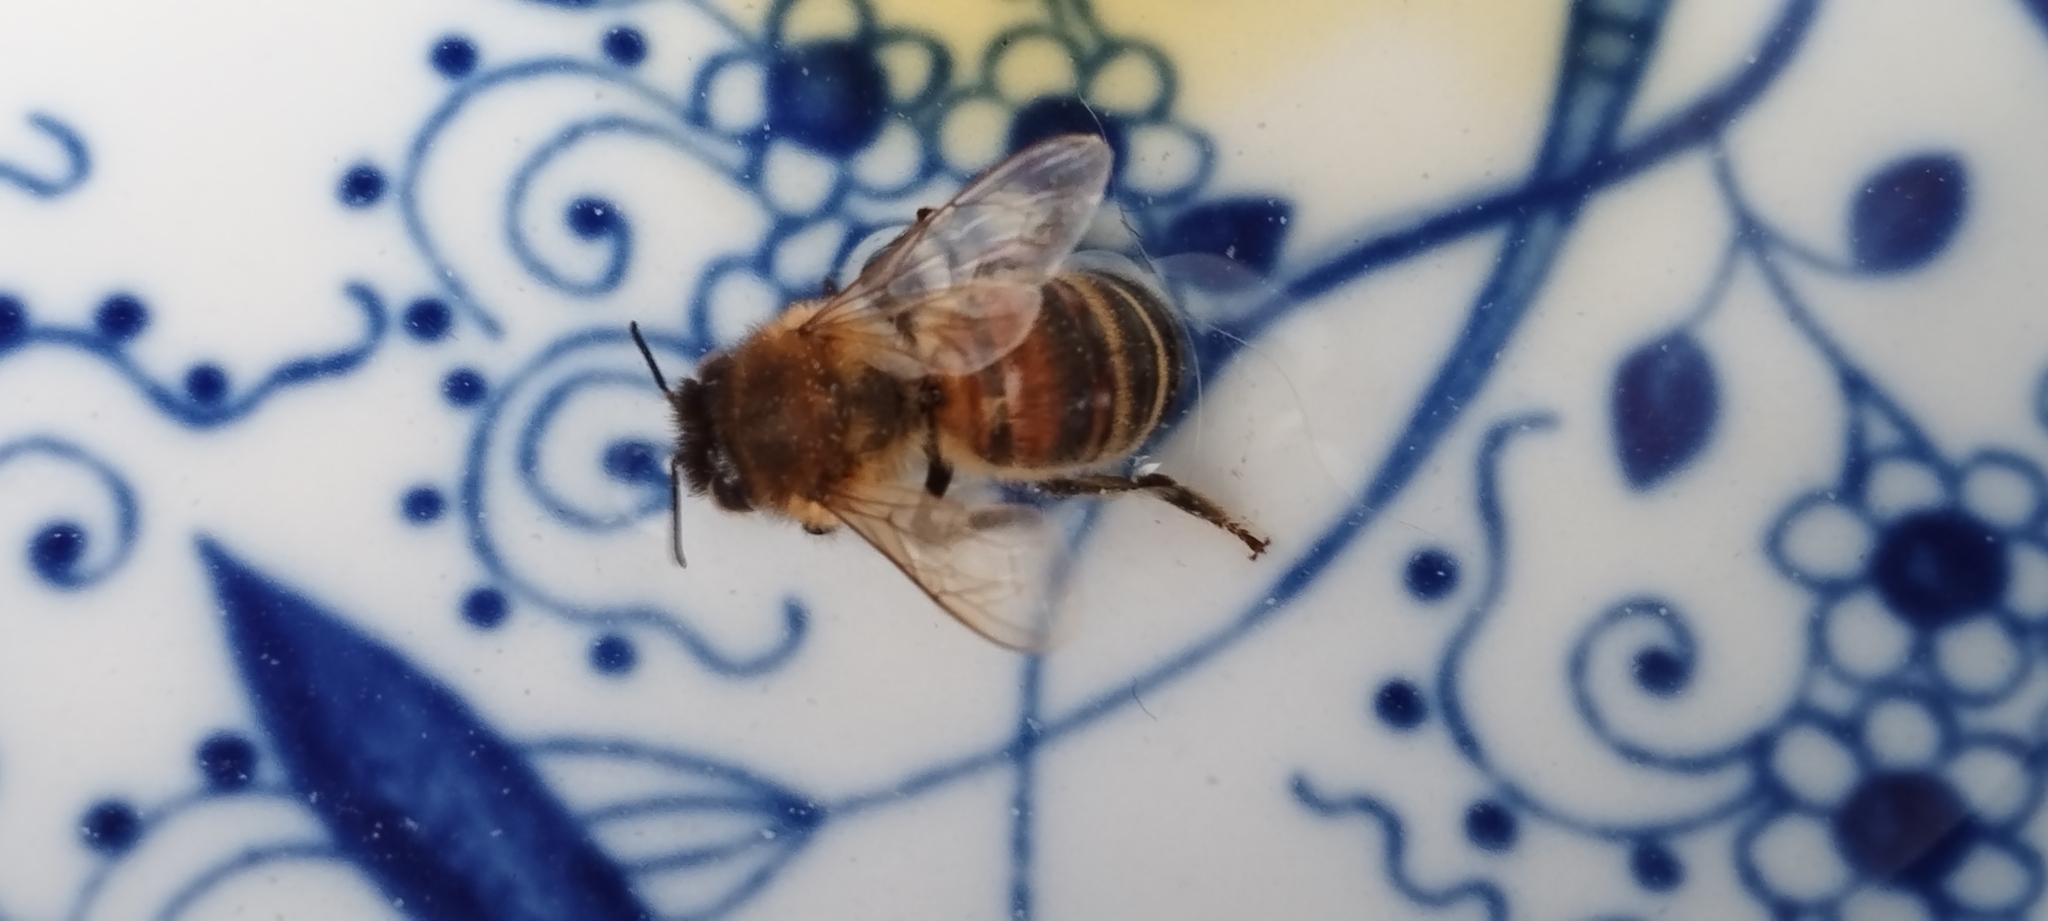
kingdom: Animalia
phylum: Arthropoda
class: Insecta
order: Hymenoptera
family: Apidae
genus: Apis
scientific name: Apis mellifera
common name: Honey bee
